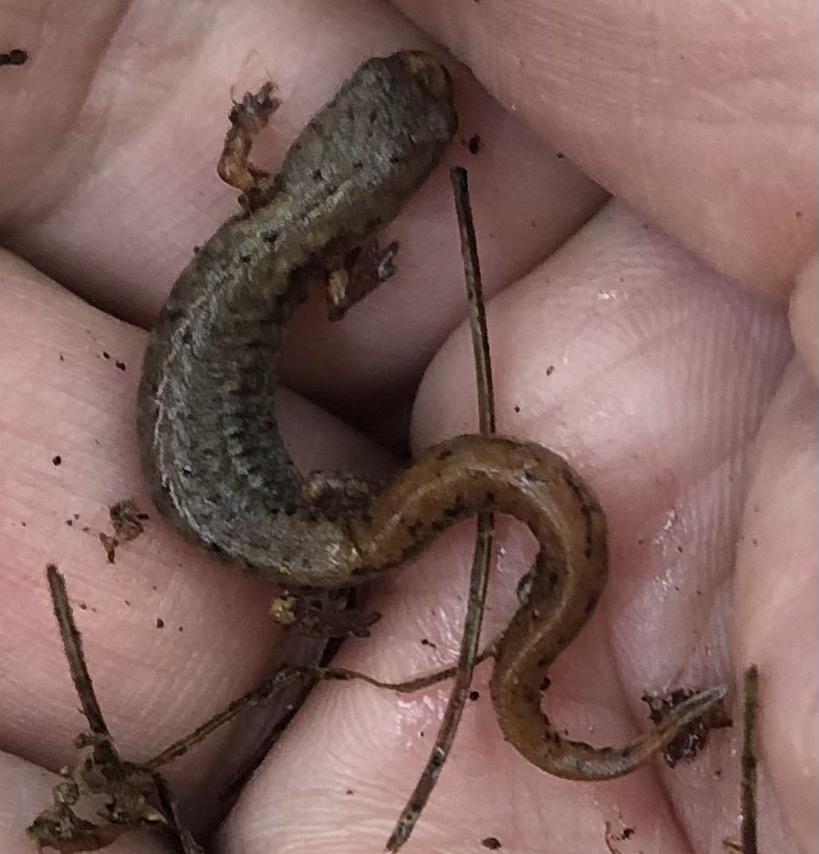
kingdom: Animalia
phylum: Chordata
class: Amphibia
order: Caudata
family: Plethodontidae
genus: Hemidactylium
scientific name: Hemidactylium scutatum
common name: Four-toed salamander
